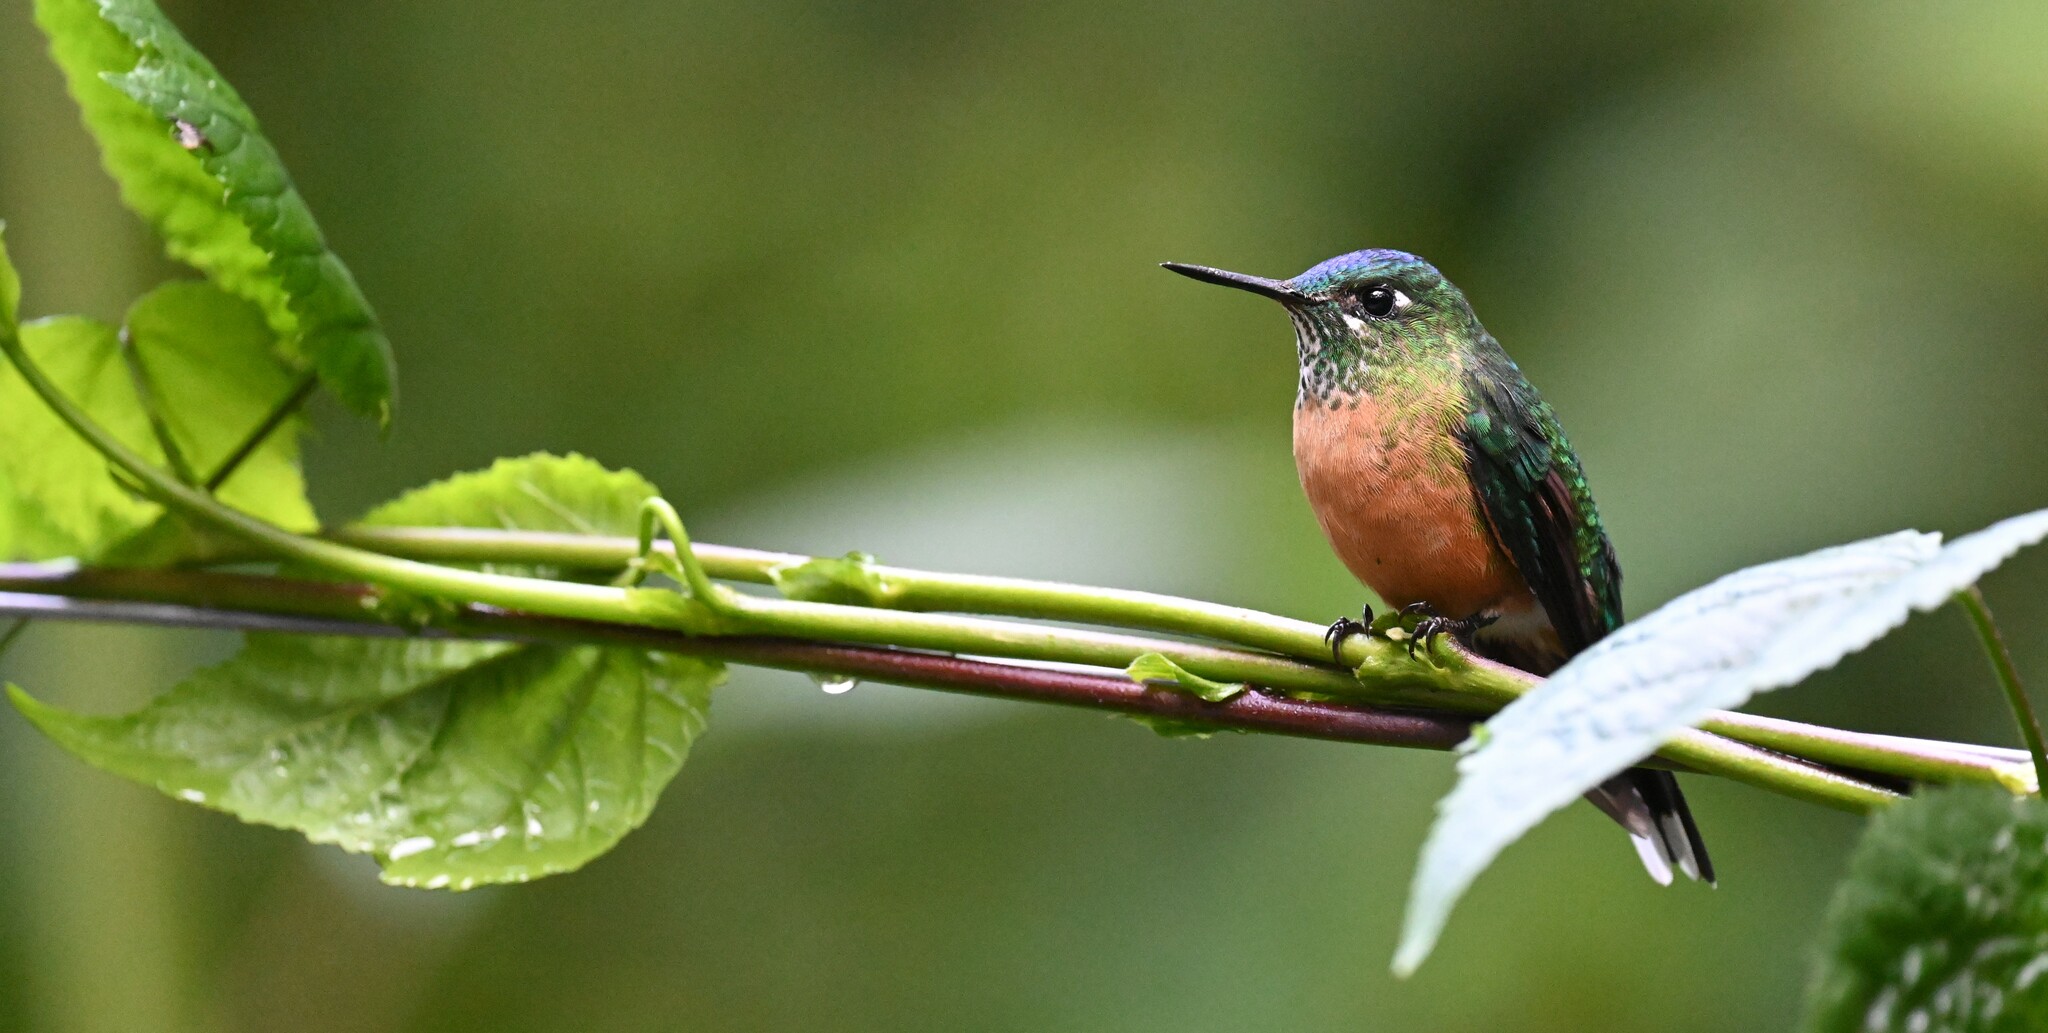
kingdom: Animalia
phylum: Chordata
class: Aves
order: Apodiformes
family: Trochilidae
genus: Aglaiocercus
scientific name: Aglaiocercus kingii
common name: Long-tailed sylph
